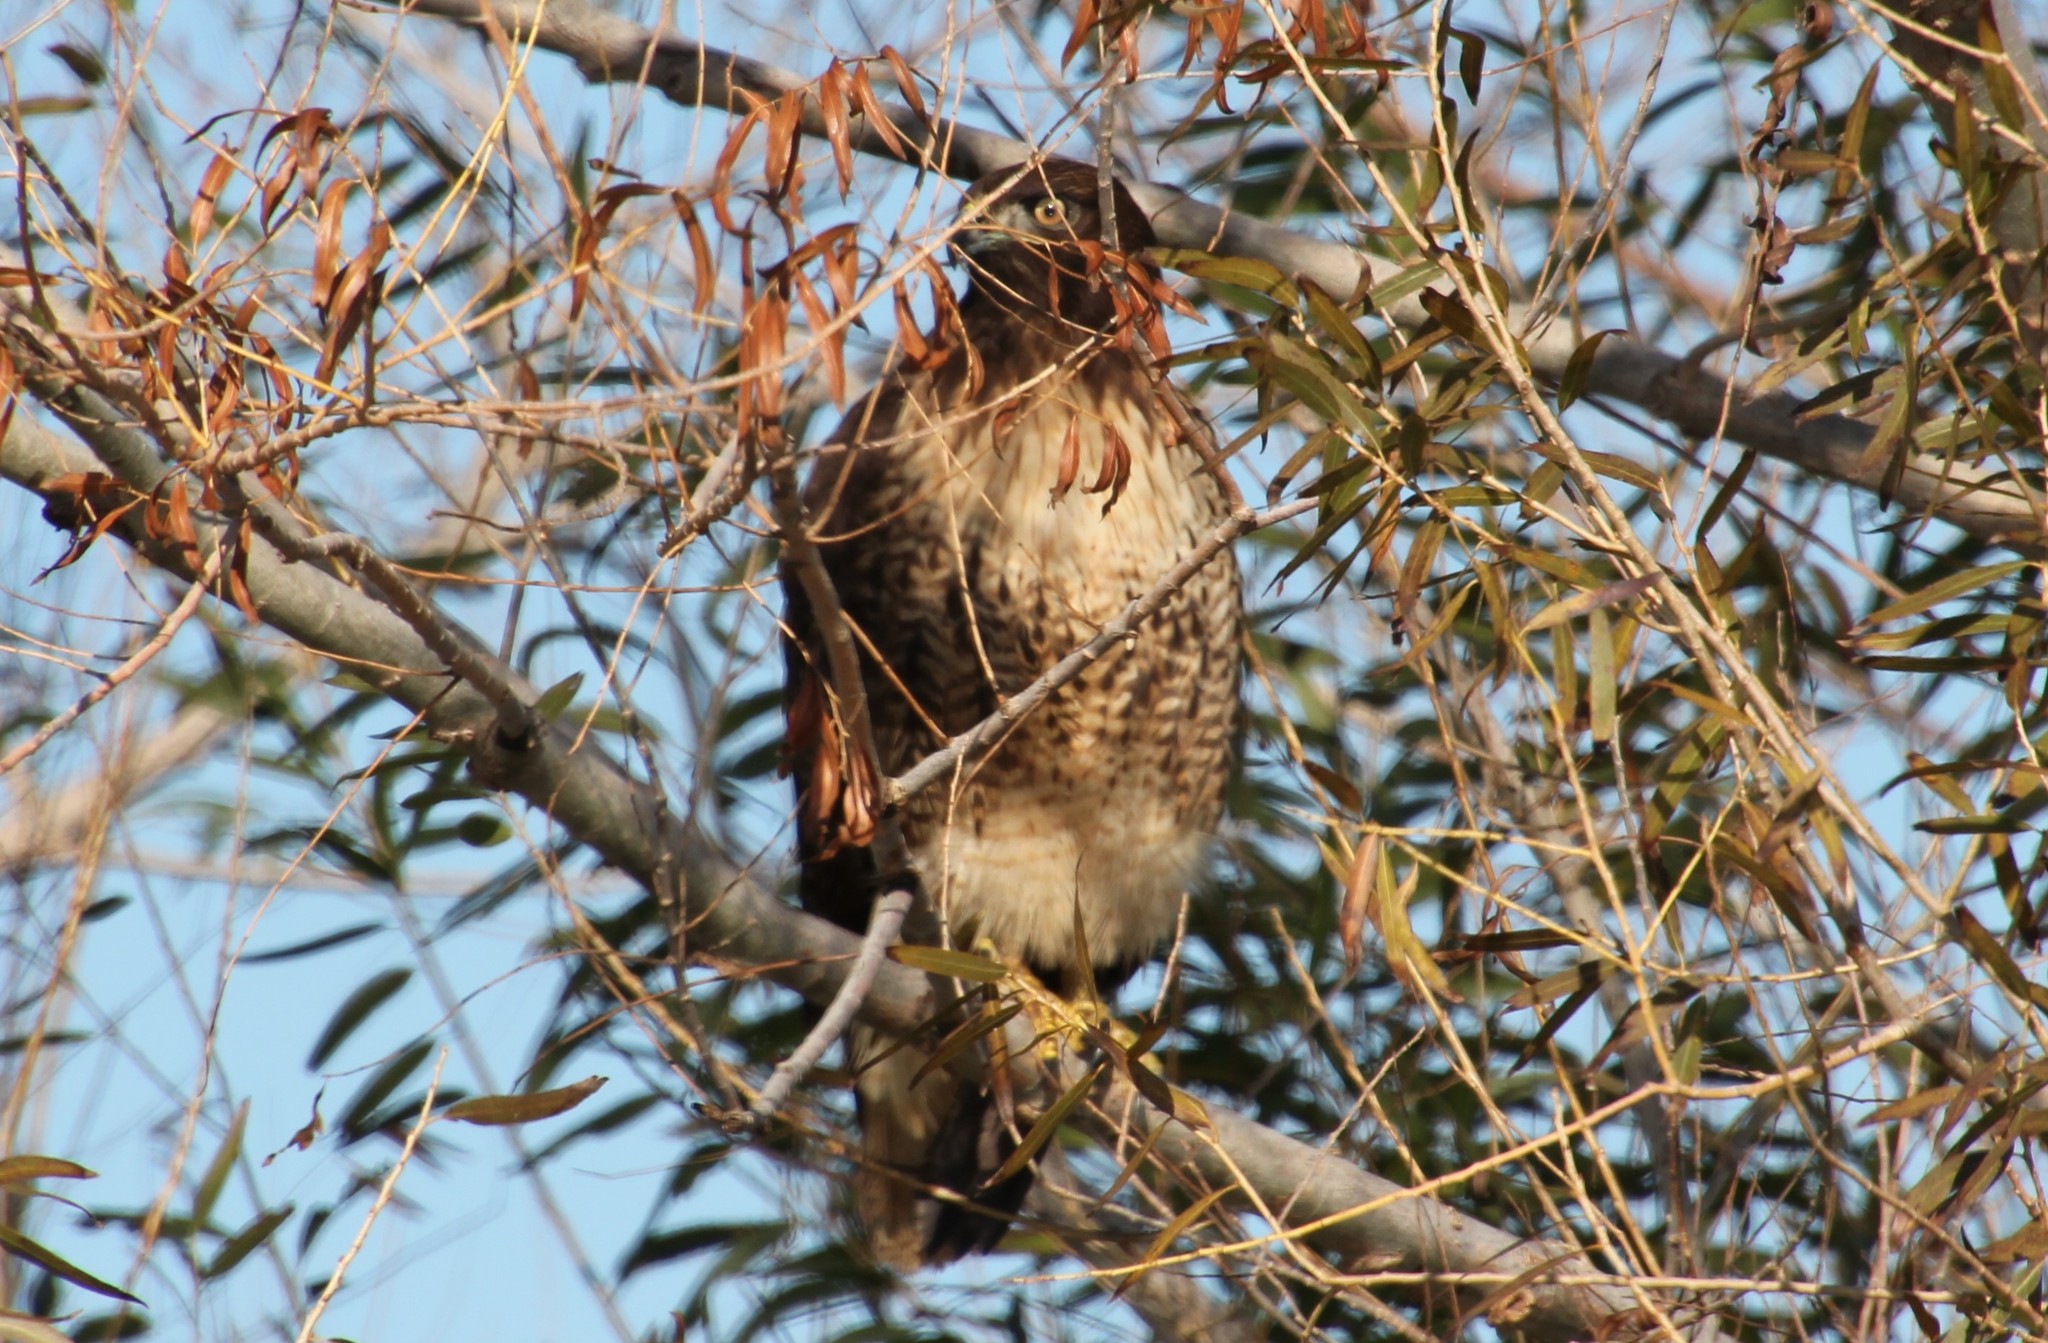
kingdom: Animalia
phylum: Chordata
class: Aves
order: Accipitriformes
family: Accipitridae
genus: Buteo
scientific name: Buteo jamaicensis
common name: Red-tailed hawk
